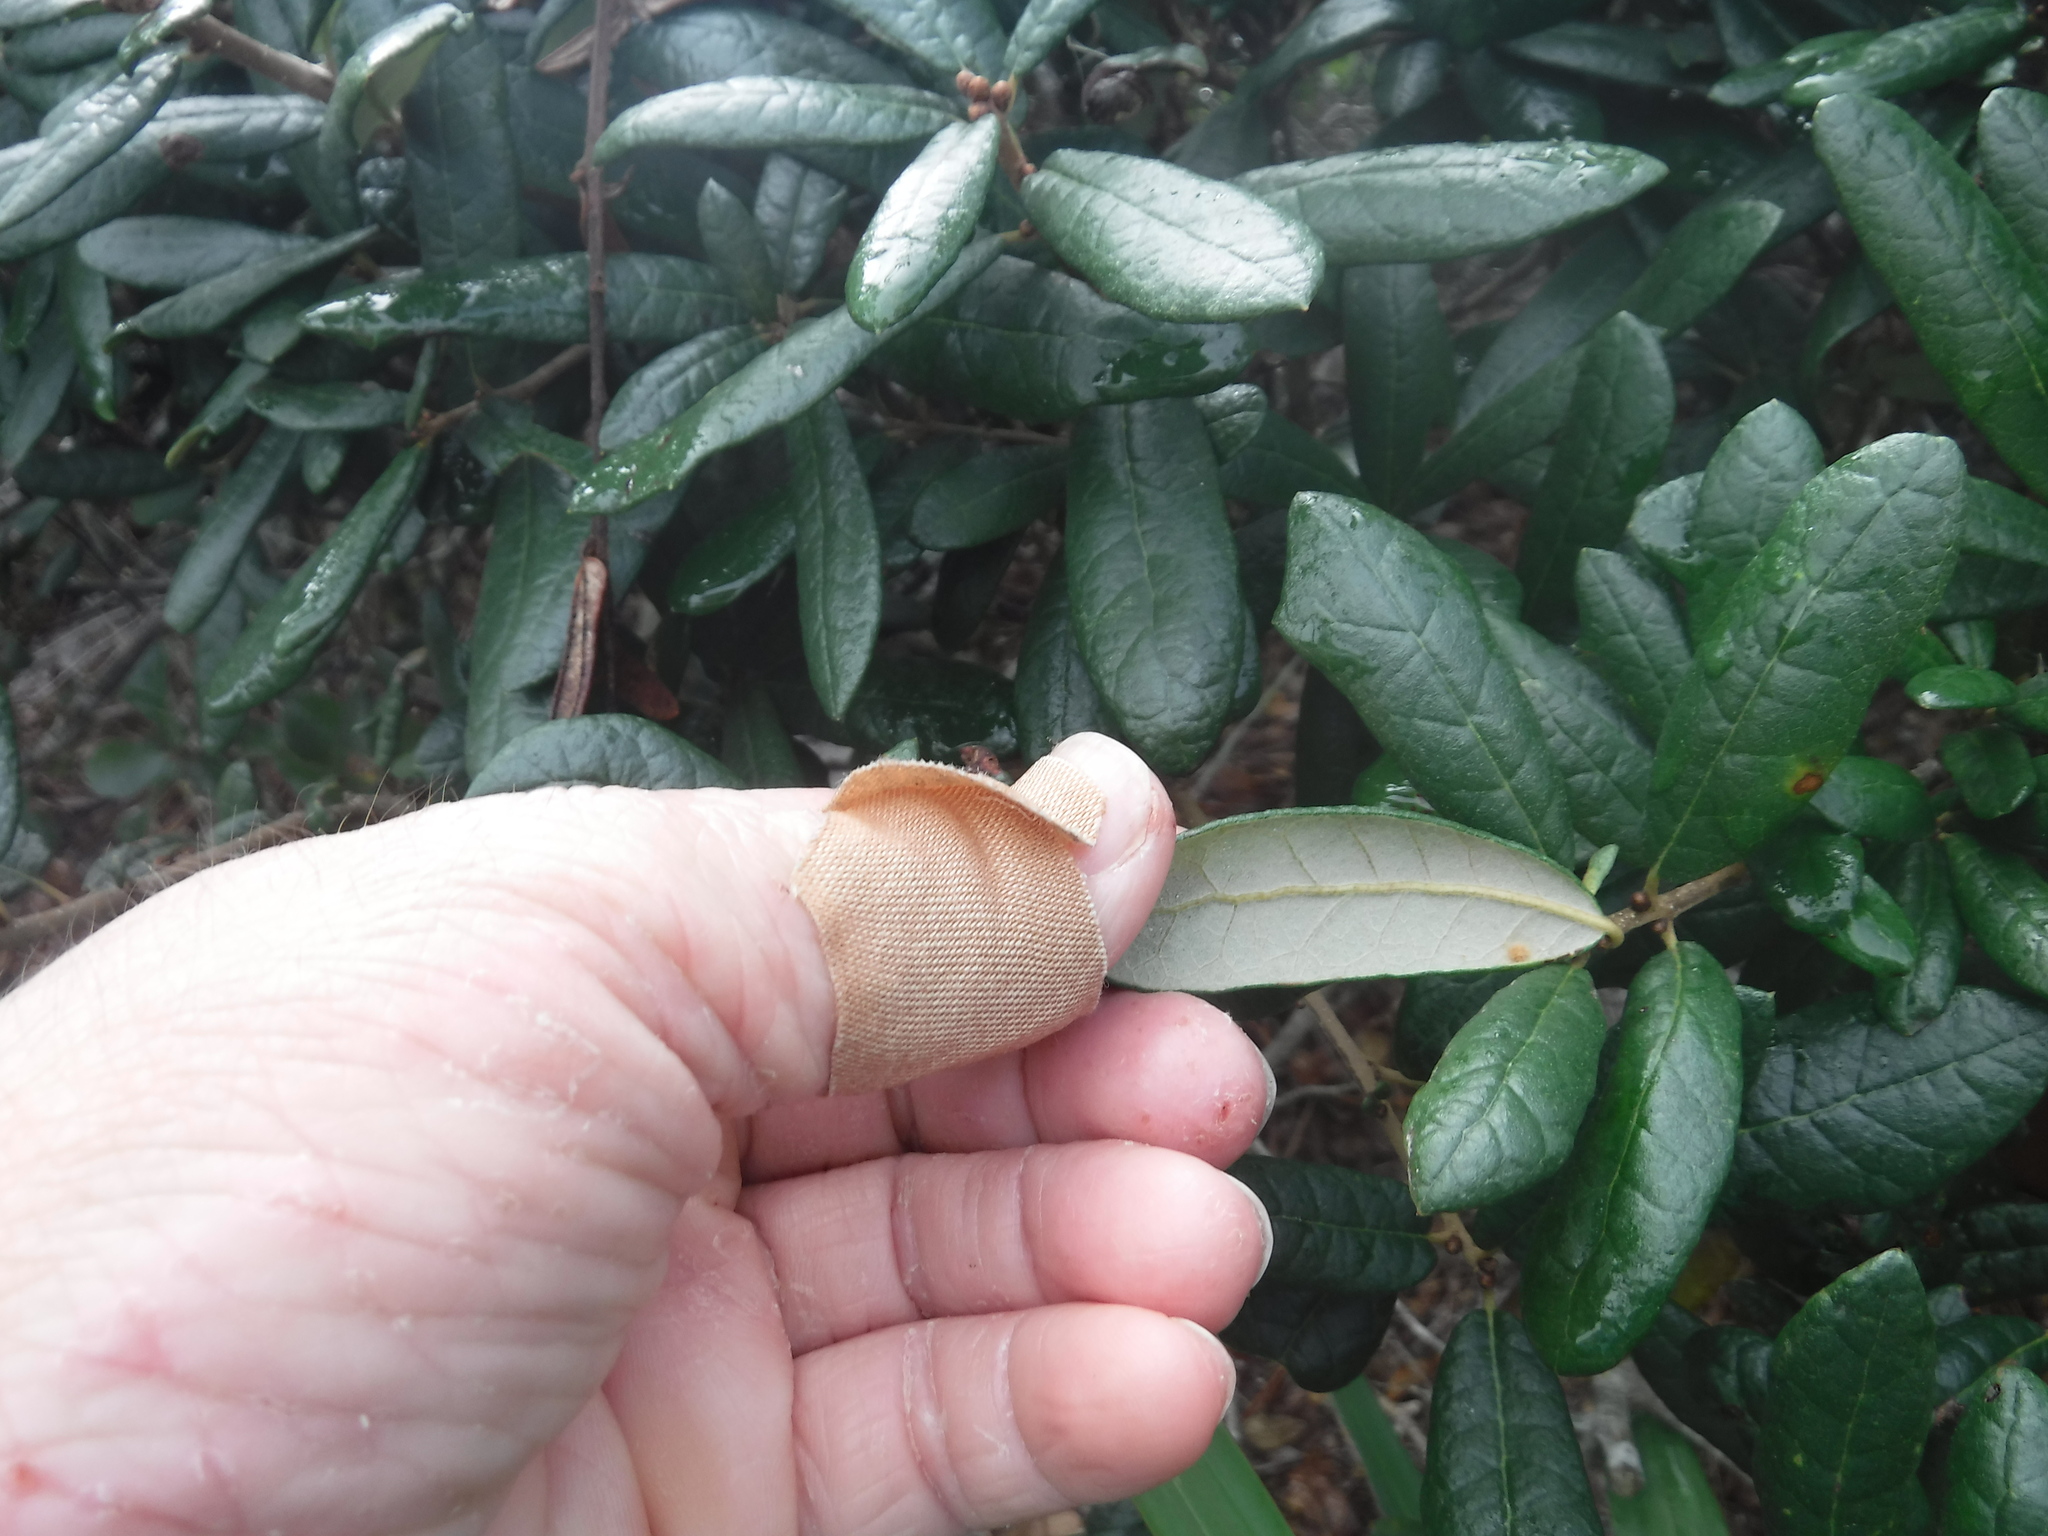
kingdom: Plantae
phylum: Tracheophyta
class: Magnoliopsida
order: Fagales
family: Fagaceae
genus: Quercus
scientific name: Quercus geminata
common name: Sand live oak
